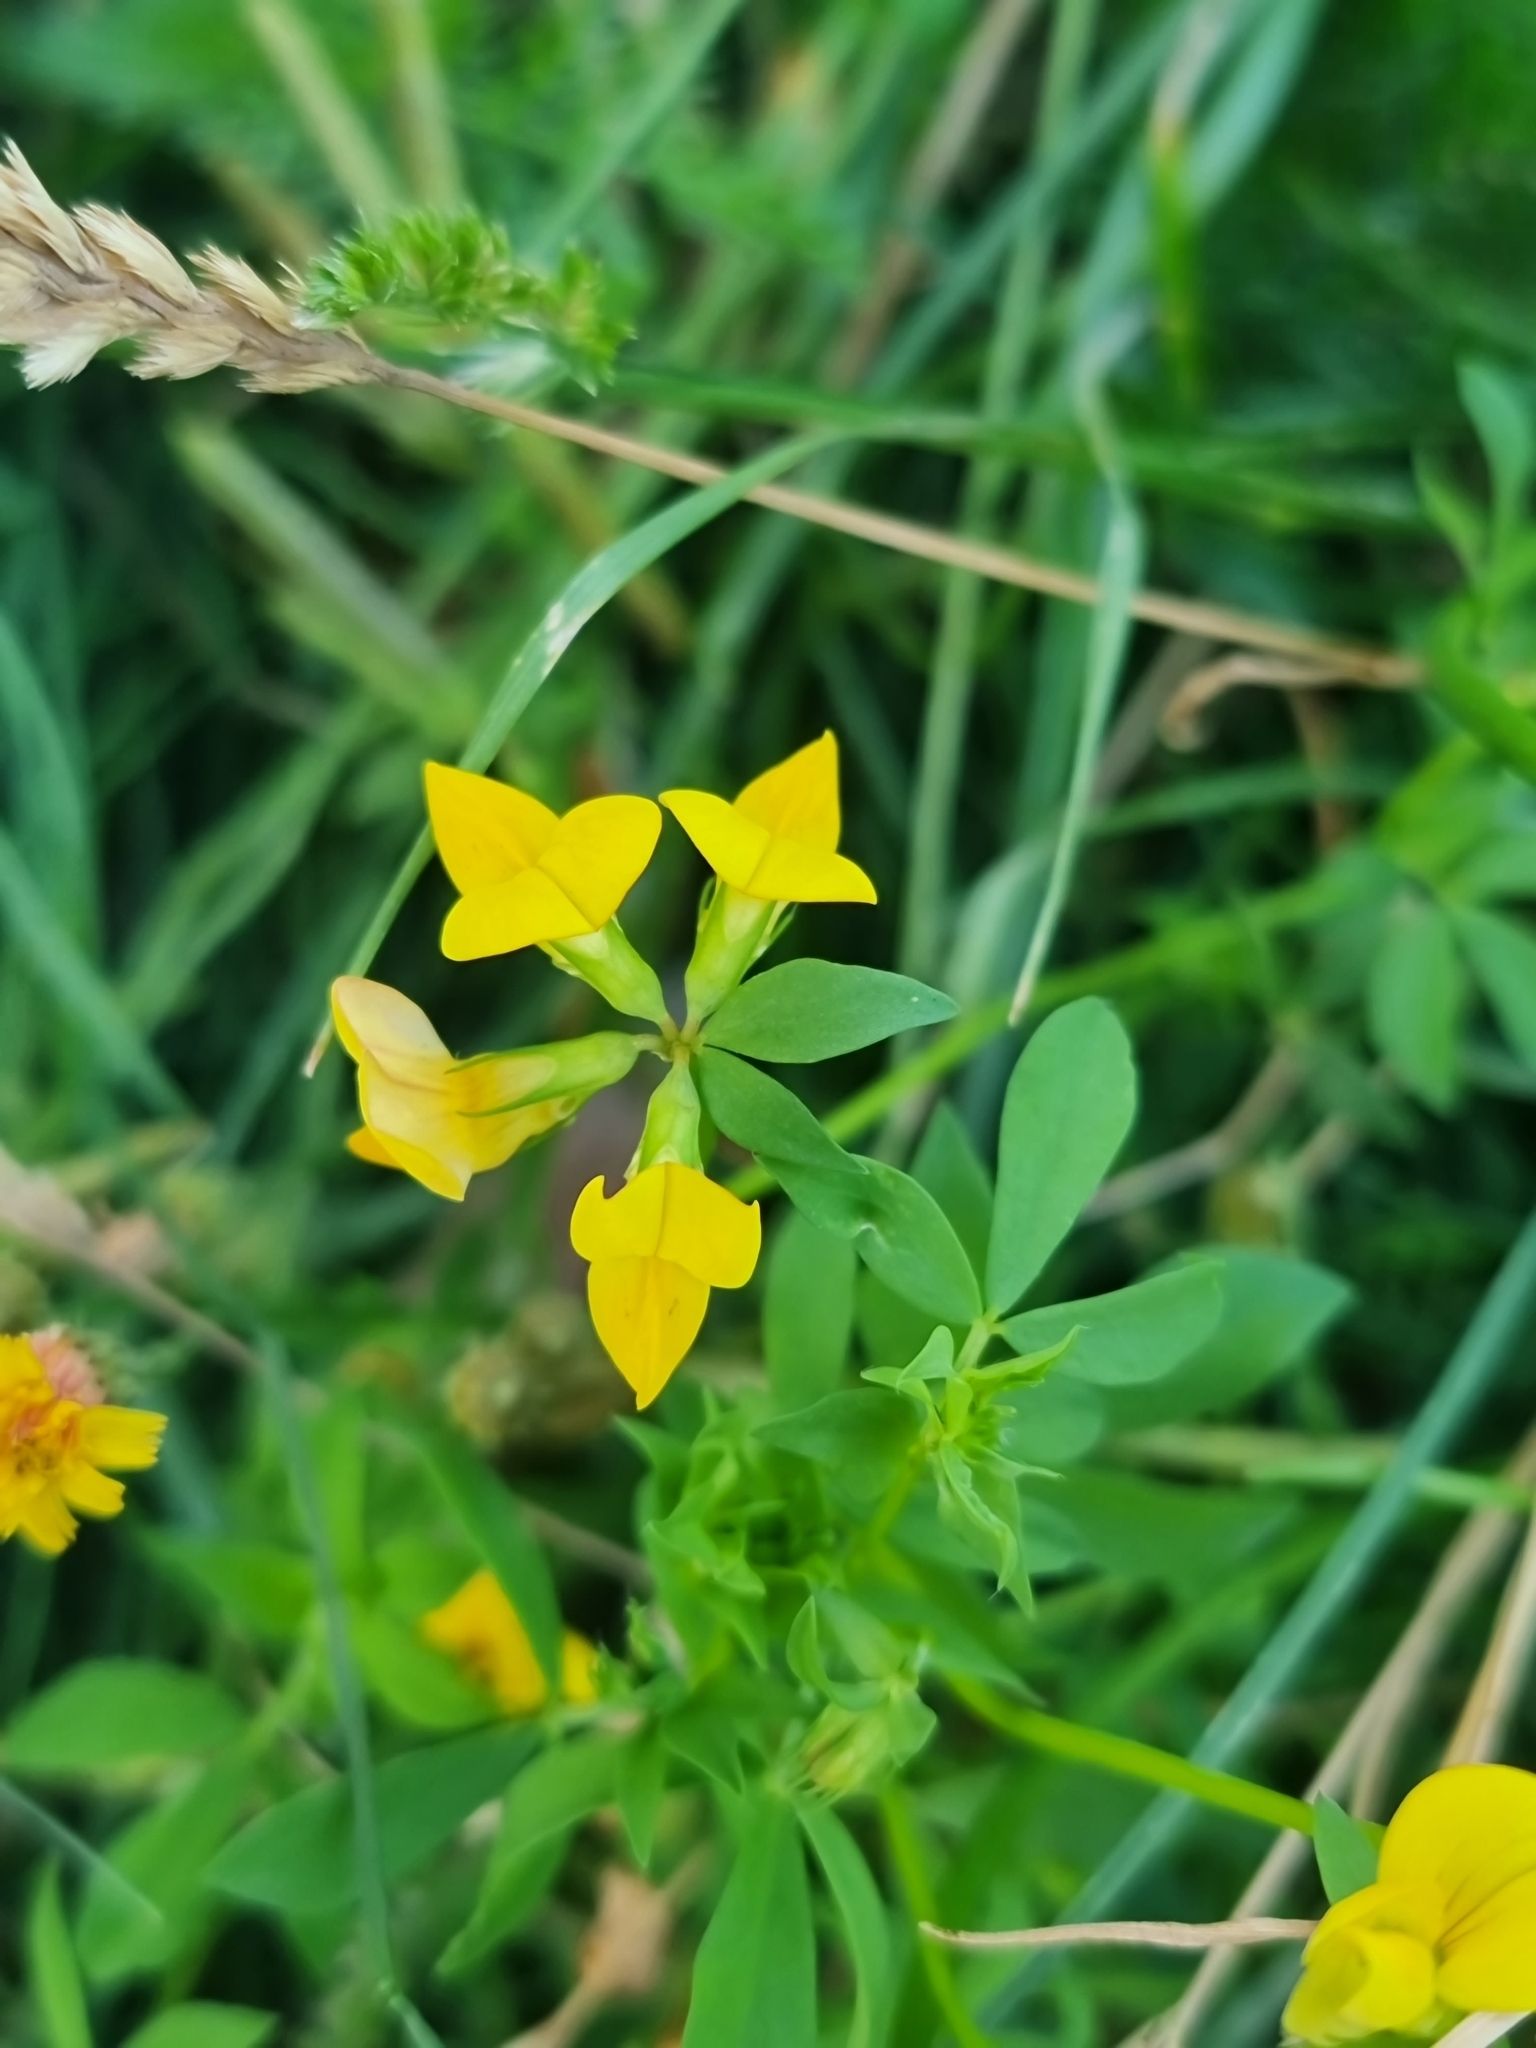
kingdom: Plantae
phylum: Tracheophyta
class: Magnoliopsida
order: Fabales
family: Fabaceae
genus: Lotus
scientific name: Lotus corniculatus
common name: Common bird's-foot-trefoil
